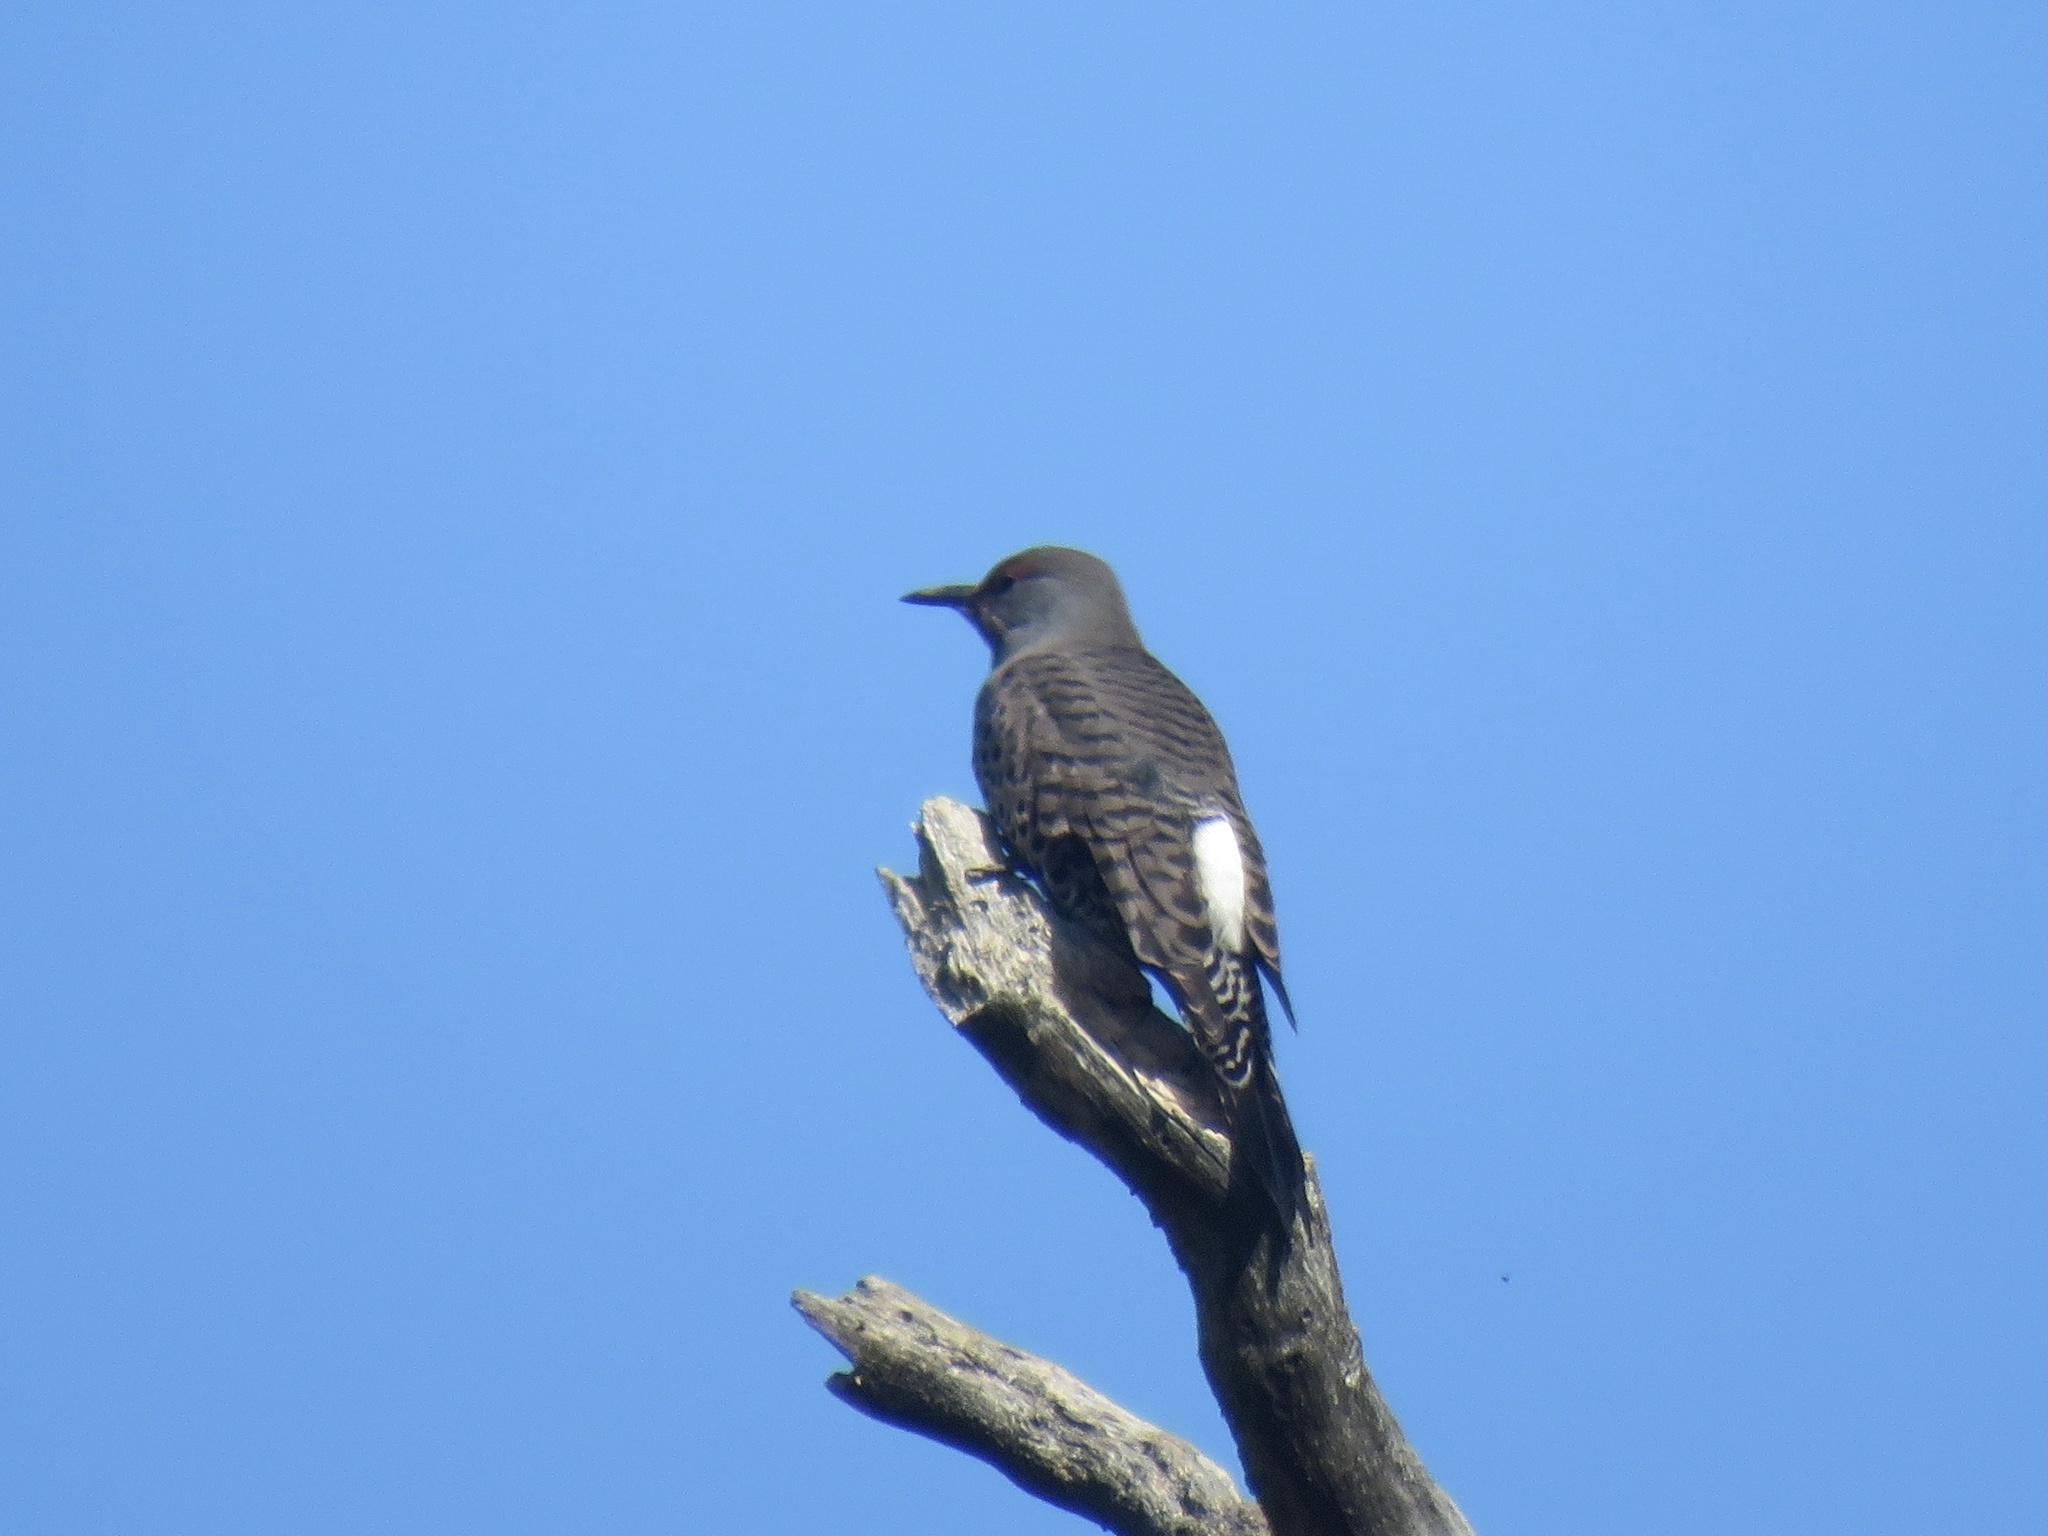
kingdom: Animalia
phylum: Chordata
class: Aves
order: Piciformes
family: Picidae
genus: Colaptes
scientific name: Colaptes auratus
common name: Northern flicker
